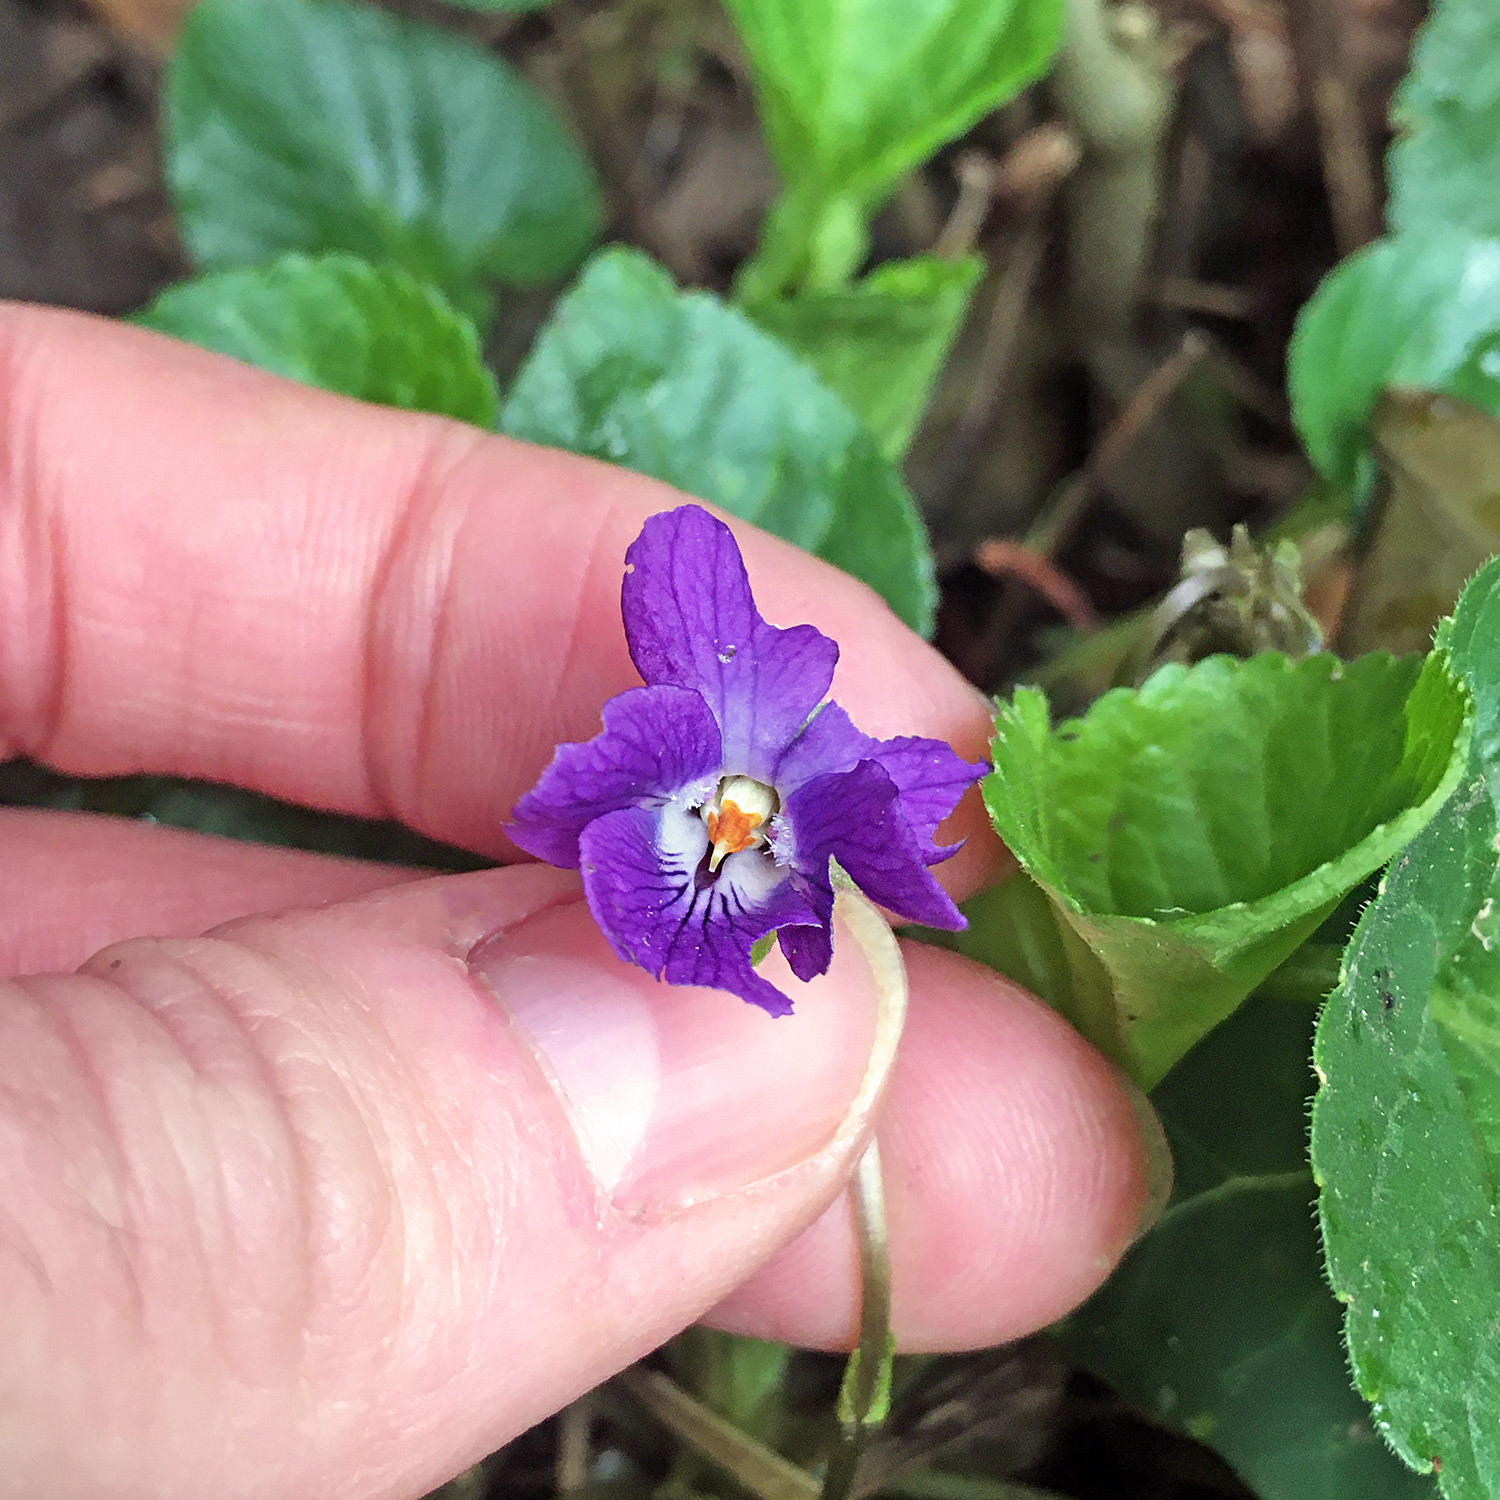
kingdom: Plantae
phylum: Tracheophyta
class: Magnoliopsida
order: Malpighiales
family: Violaceae
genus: Viola
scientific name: Viola odorata
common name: Sweet violet
